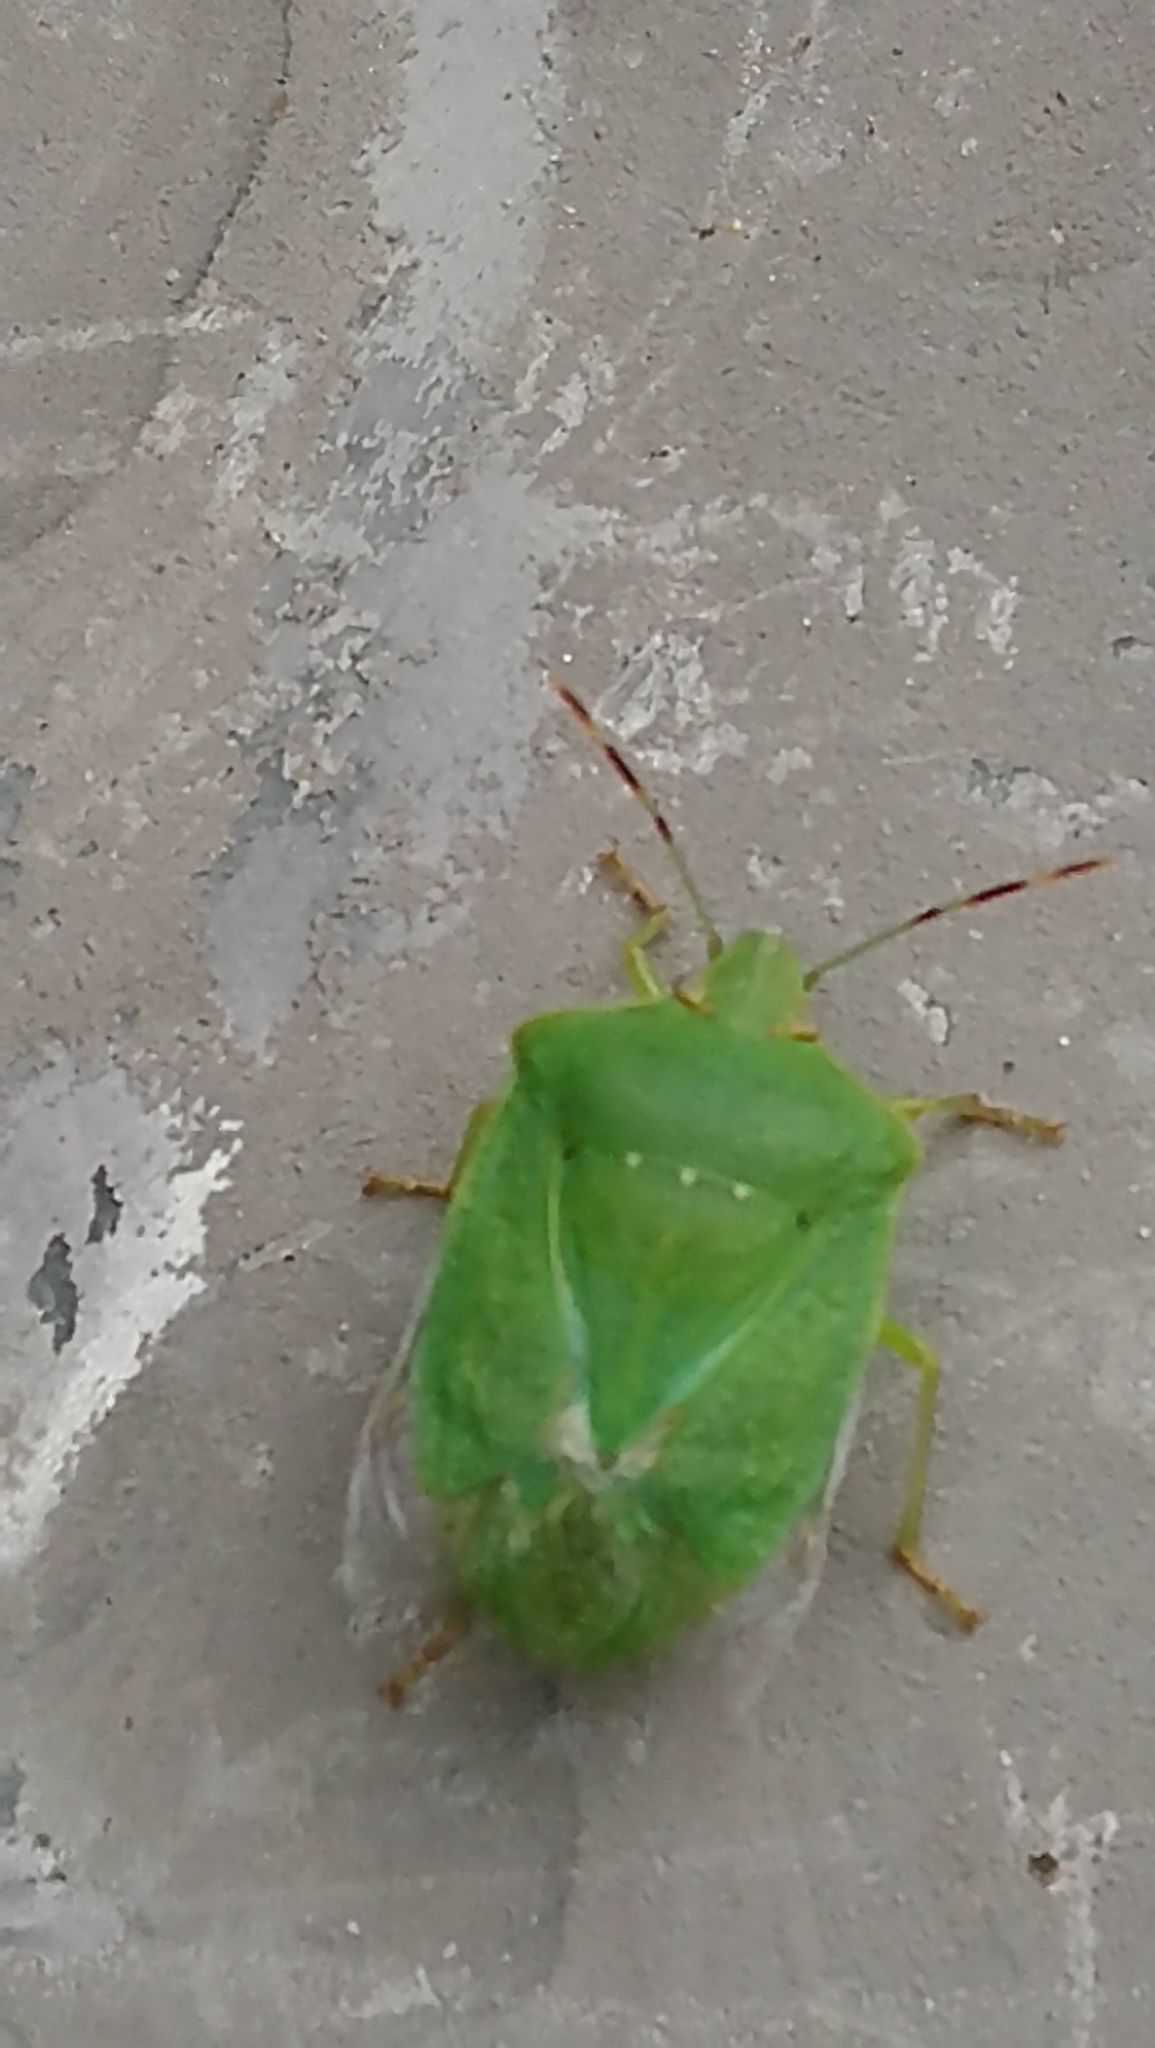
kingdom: Animalia
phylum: Arthropoda
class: Insecta
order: Hemiptera
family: Pentatomidae
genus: Nezara
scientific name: Nezara viridula
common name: Southern green stink bug
